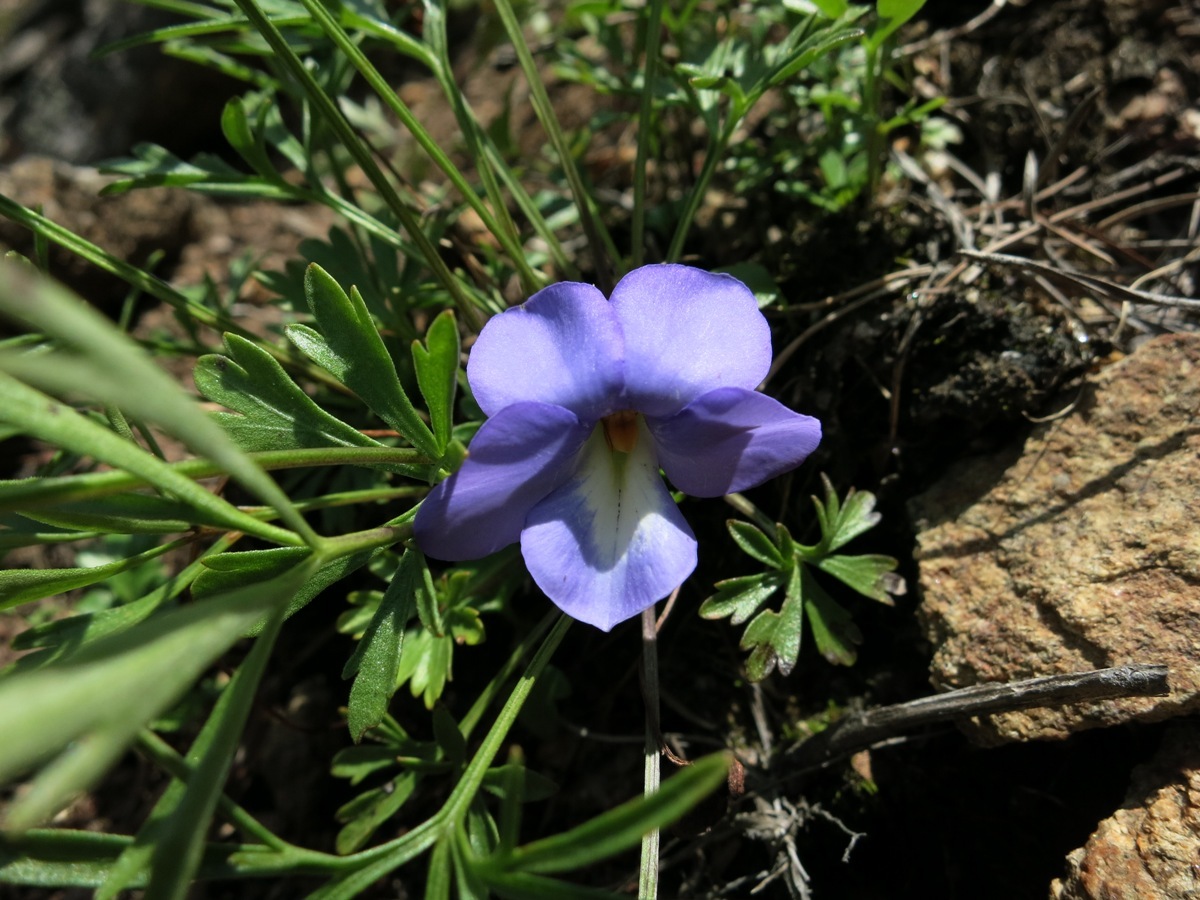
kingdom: Plantae
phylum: Tracheophyta
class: Magnoliopsida
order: Malpighiales
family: Violaceae
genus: Viola
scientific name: Viola pedata
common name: Pansy violet
